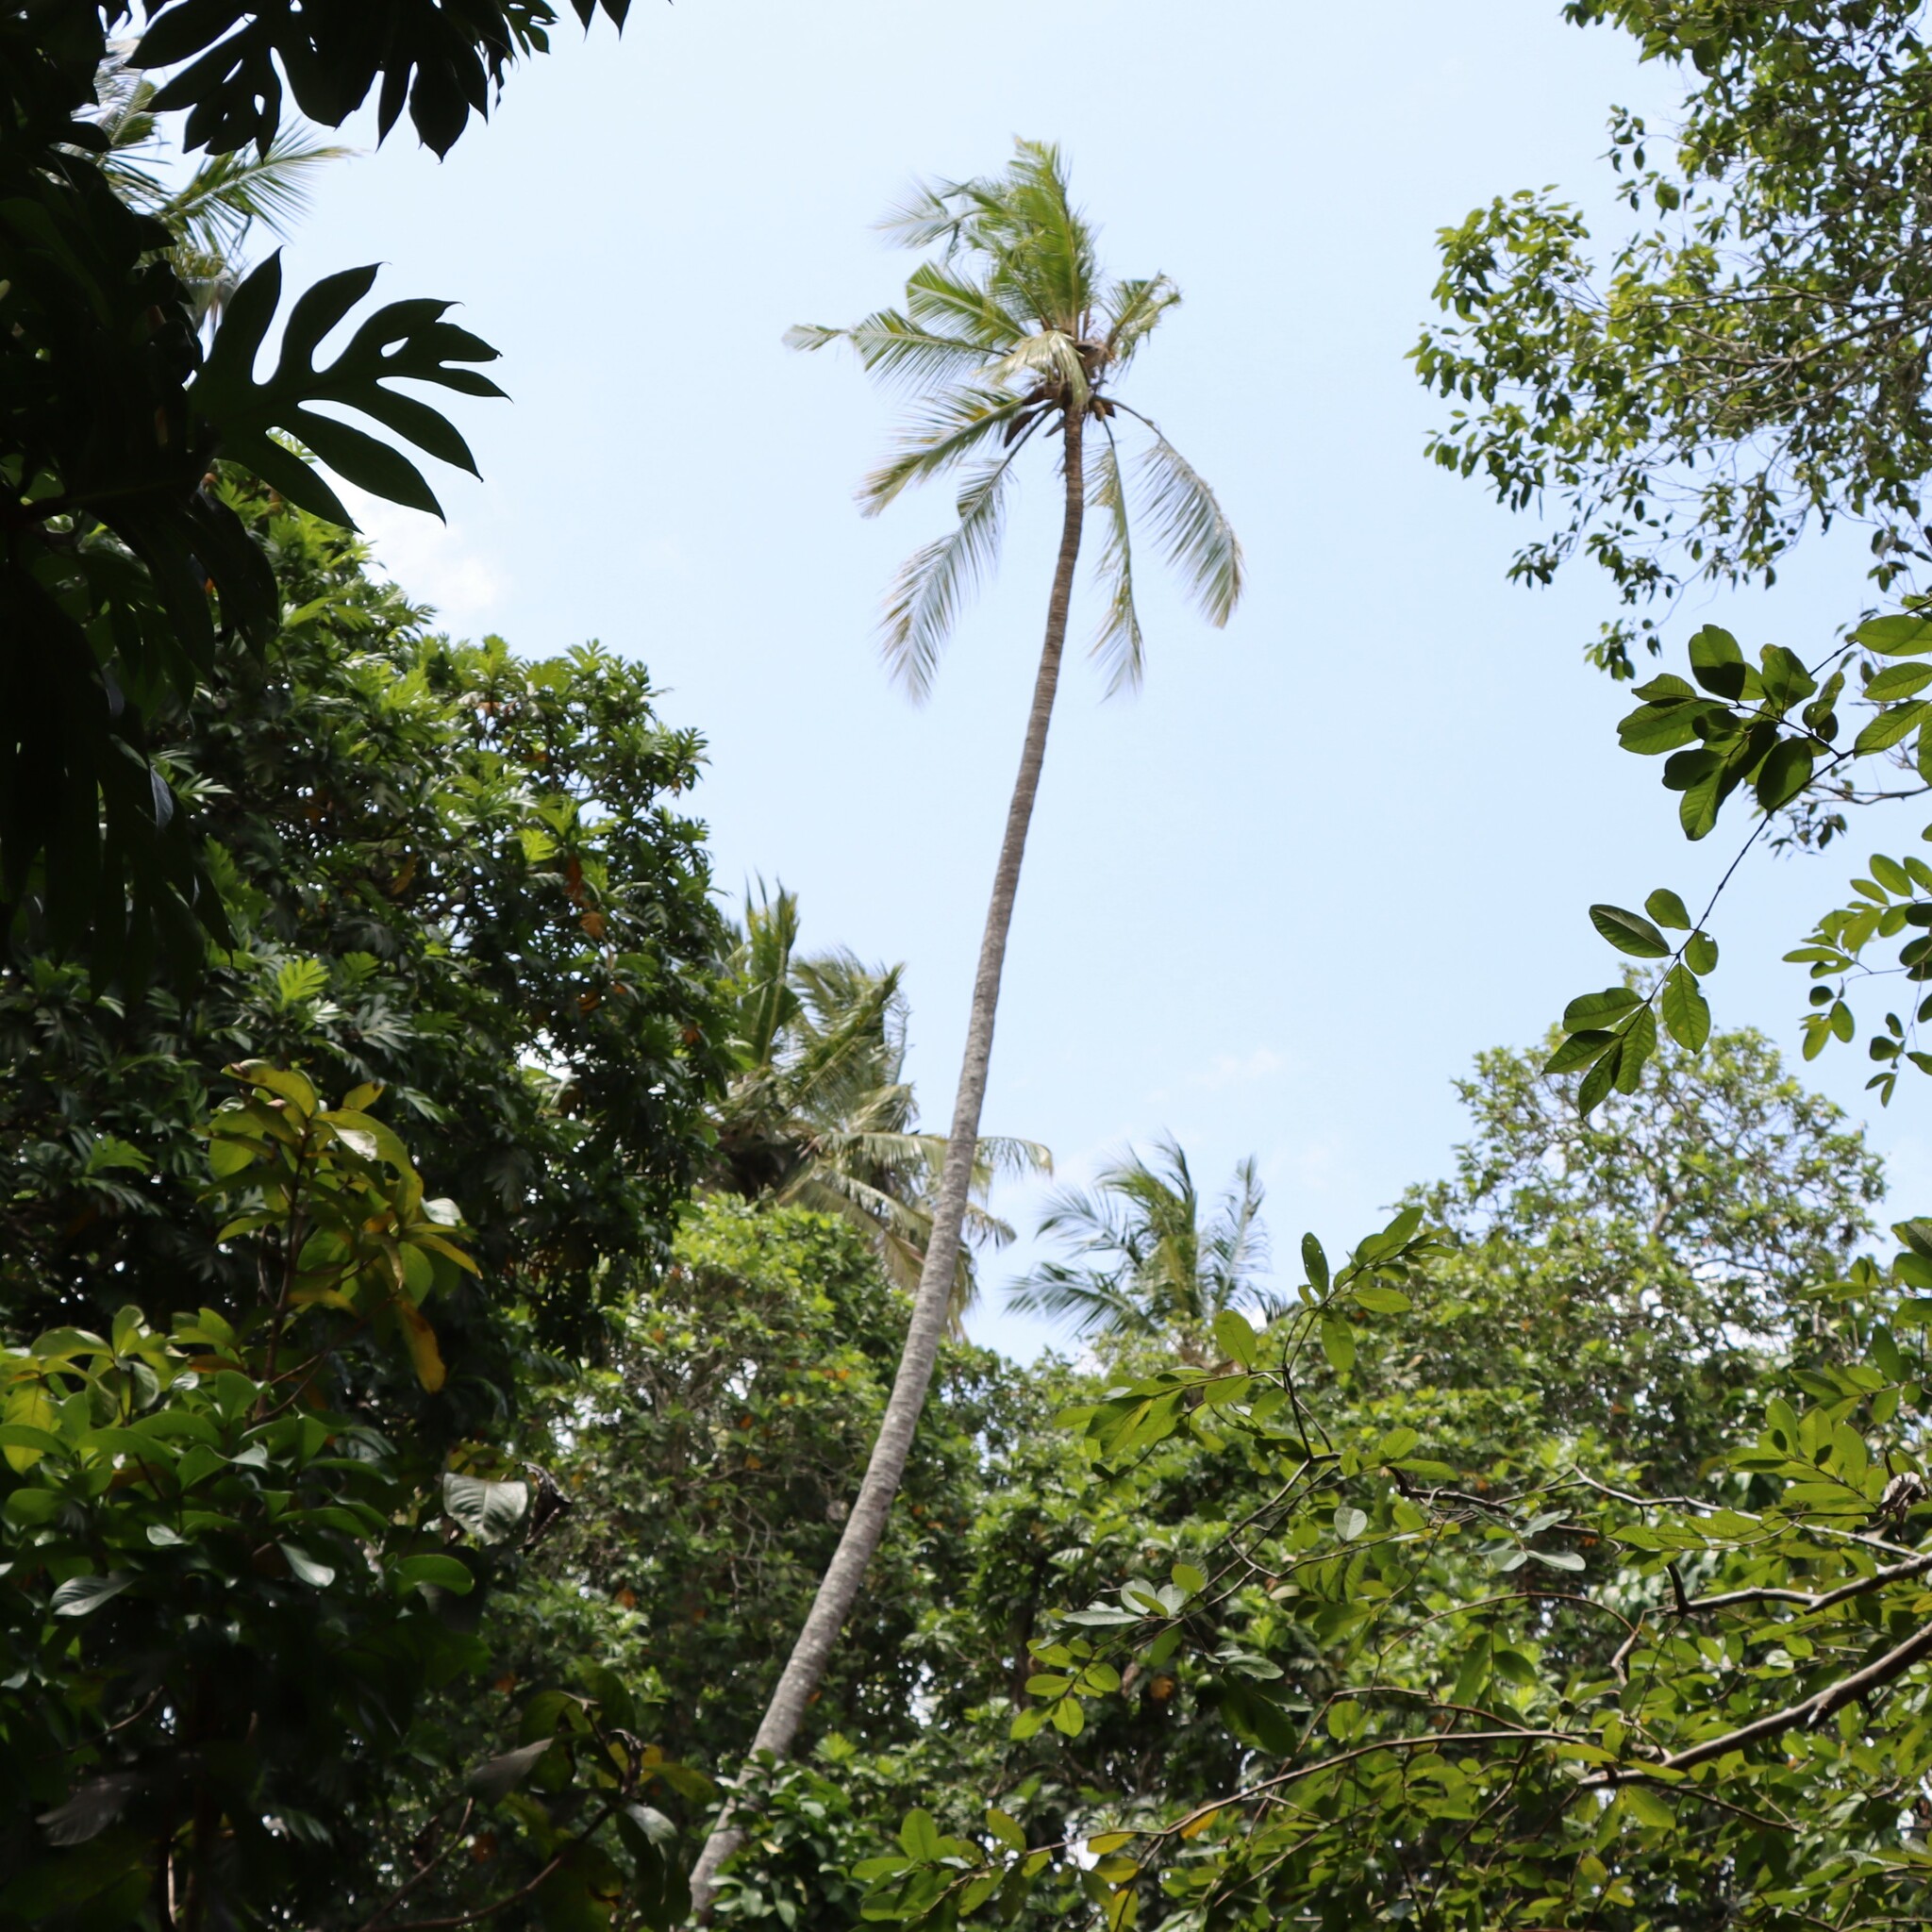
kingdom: Plantae
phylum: Tracheophyta
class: Liliopsida
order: Arecales
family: Arecaceae
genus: Cocos
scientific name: Cocos nucifera
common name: Coconut palm
